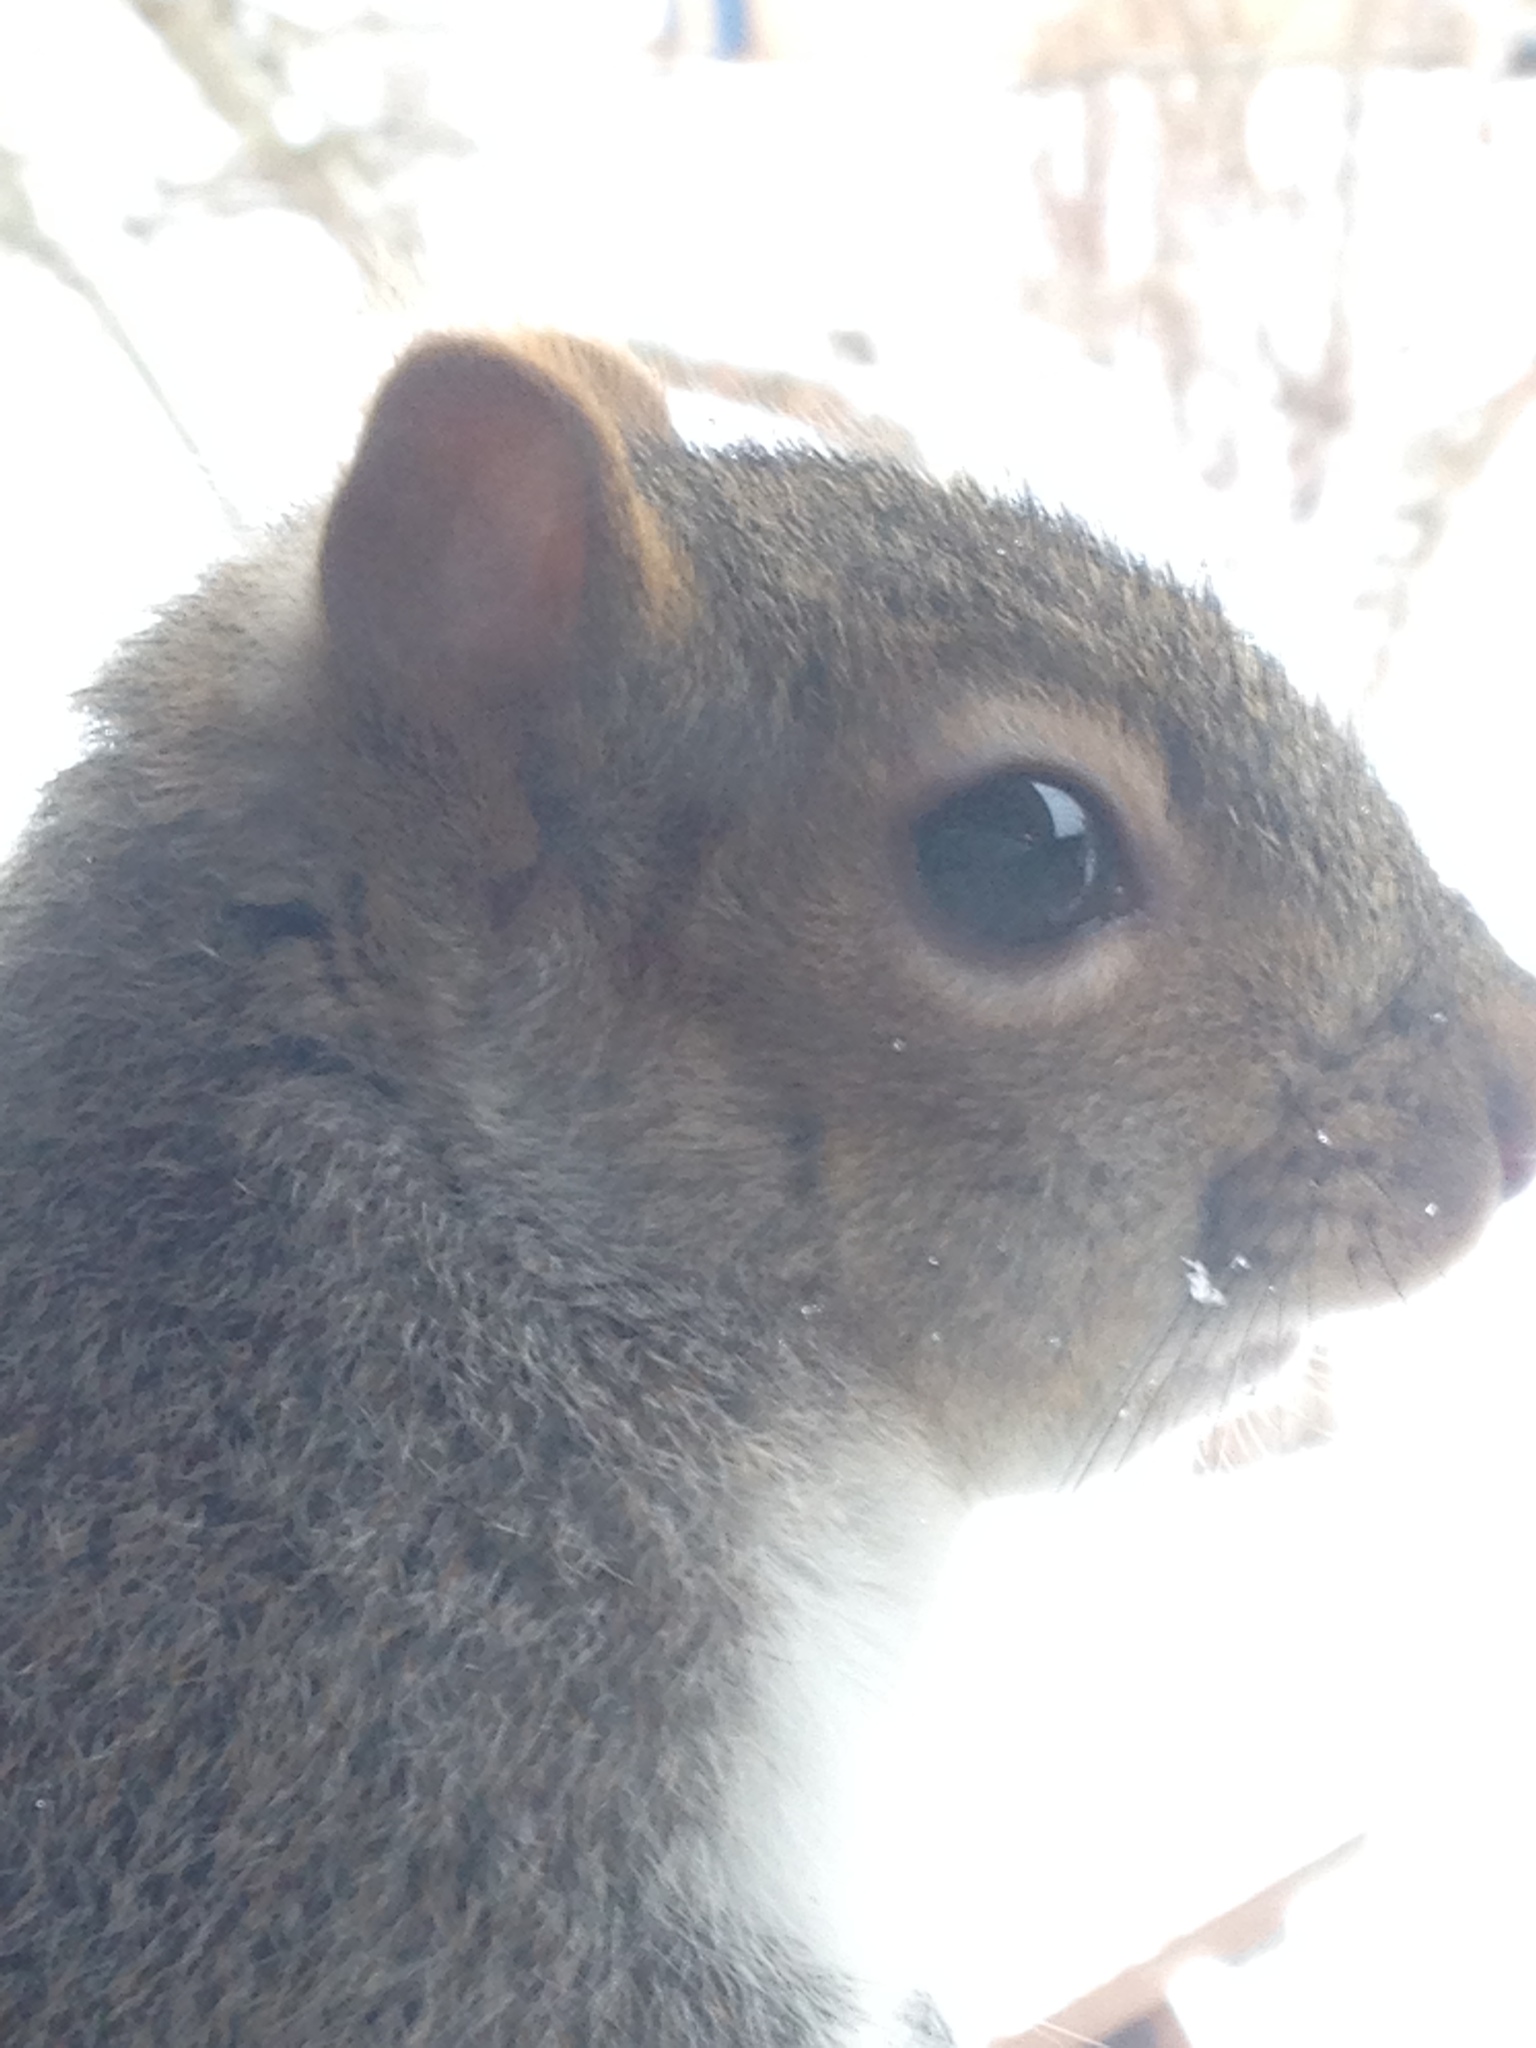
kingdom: Animalia
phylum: Chordata
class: Mammalia
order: Rodentia
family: Sciuridae
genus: Sciurus
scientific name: Sciurus carolinensis
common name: Eastern gray squirrel
